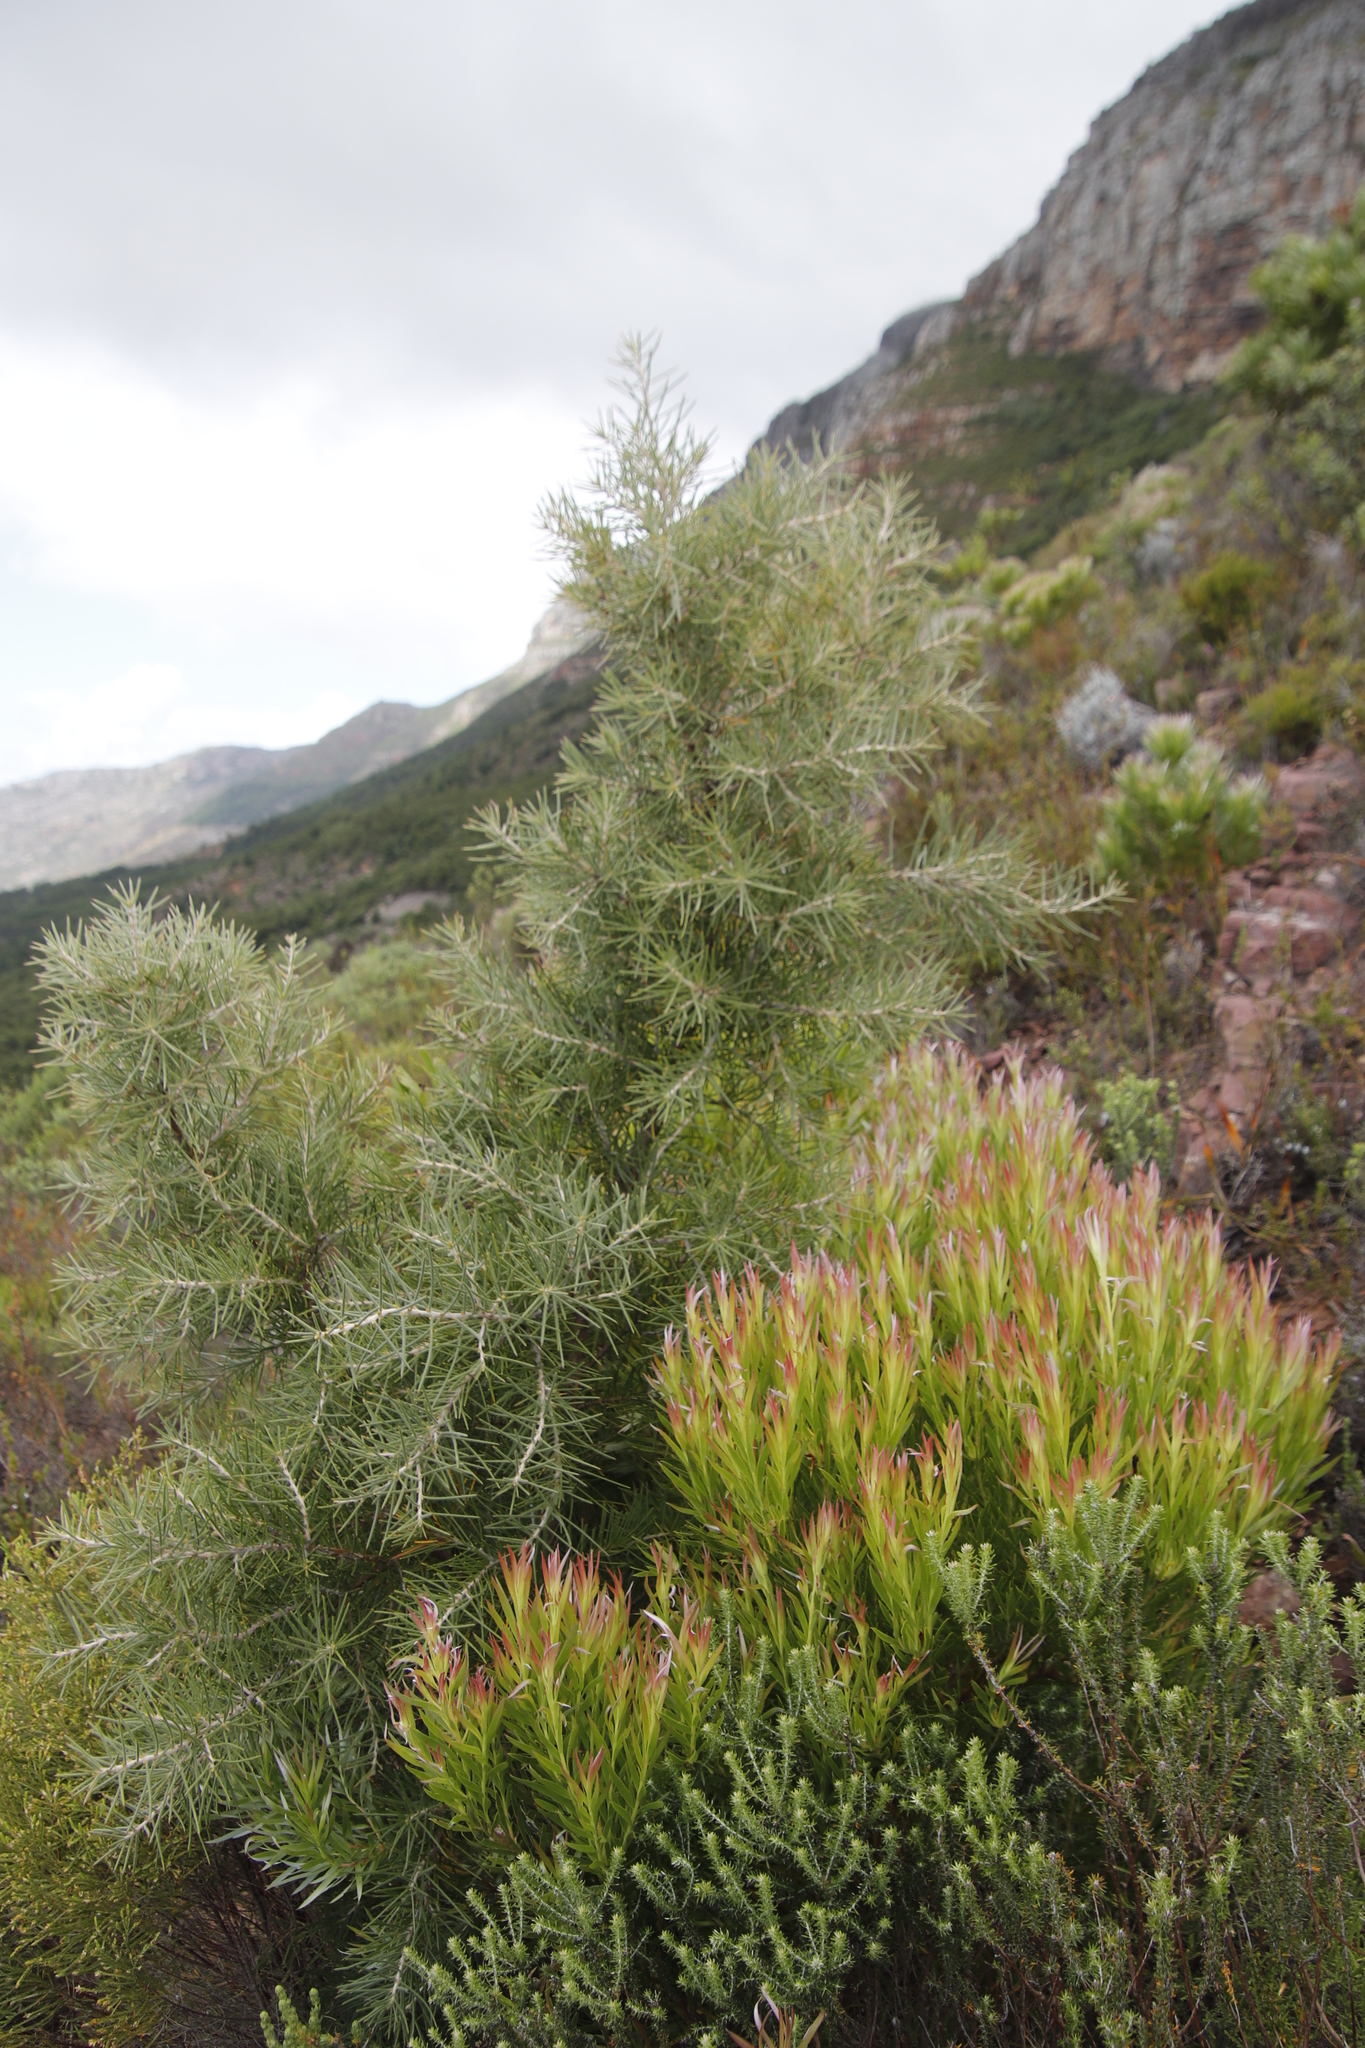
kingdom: Plantae
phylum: Tracheophyta
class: Magnoliopsida
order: Proteales
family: Proteaceae
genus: Hakea
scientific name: Hakea gibbosa
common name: Rock hakea
